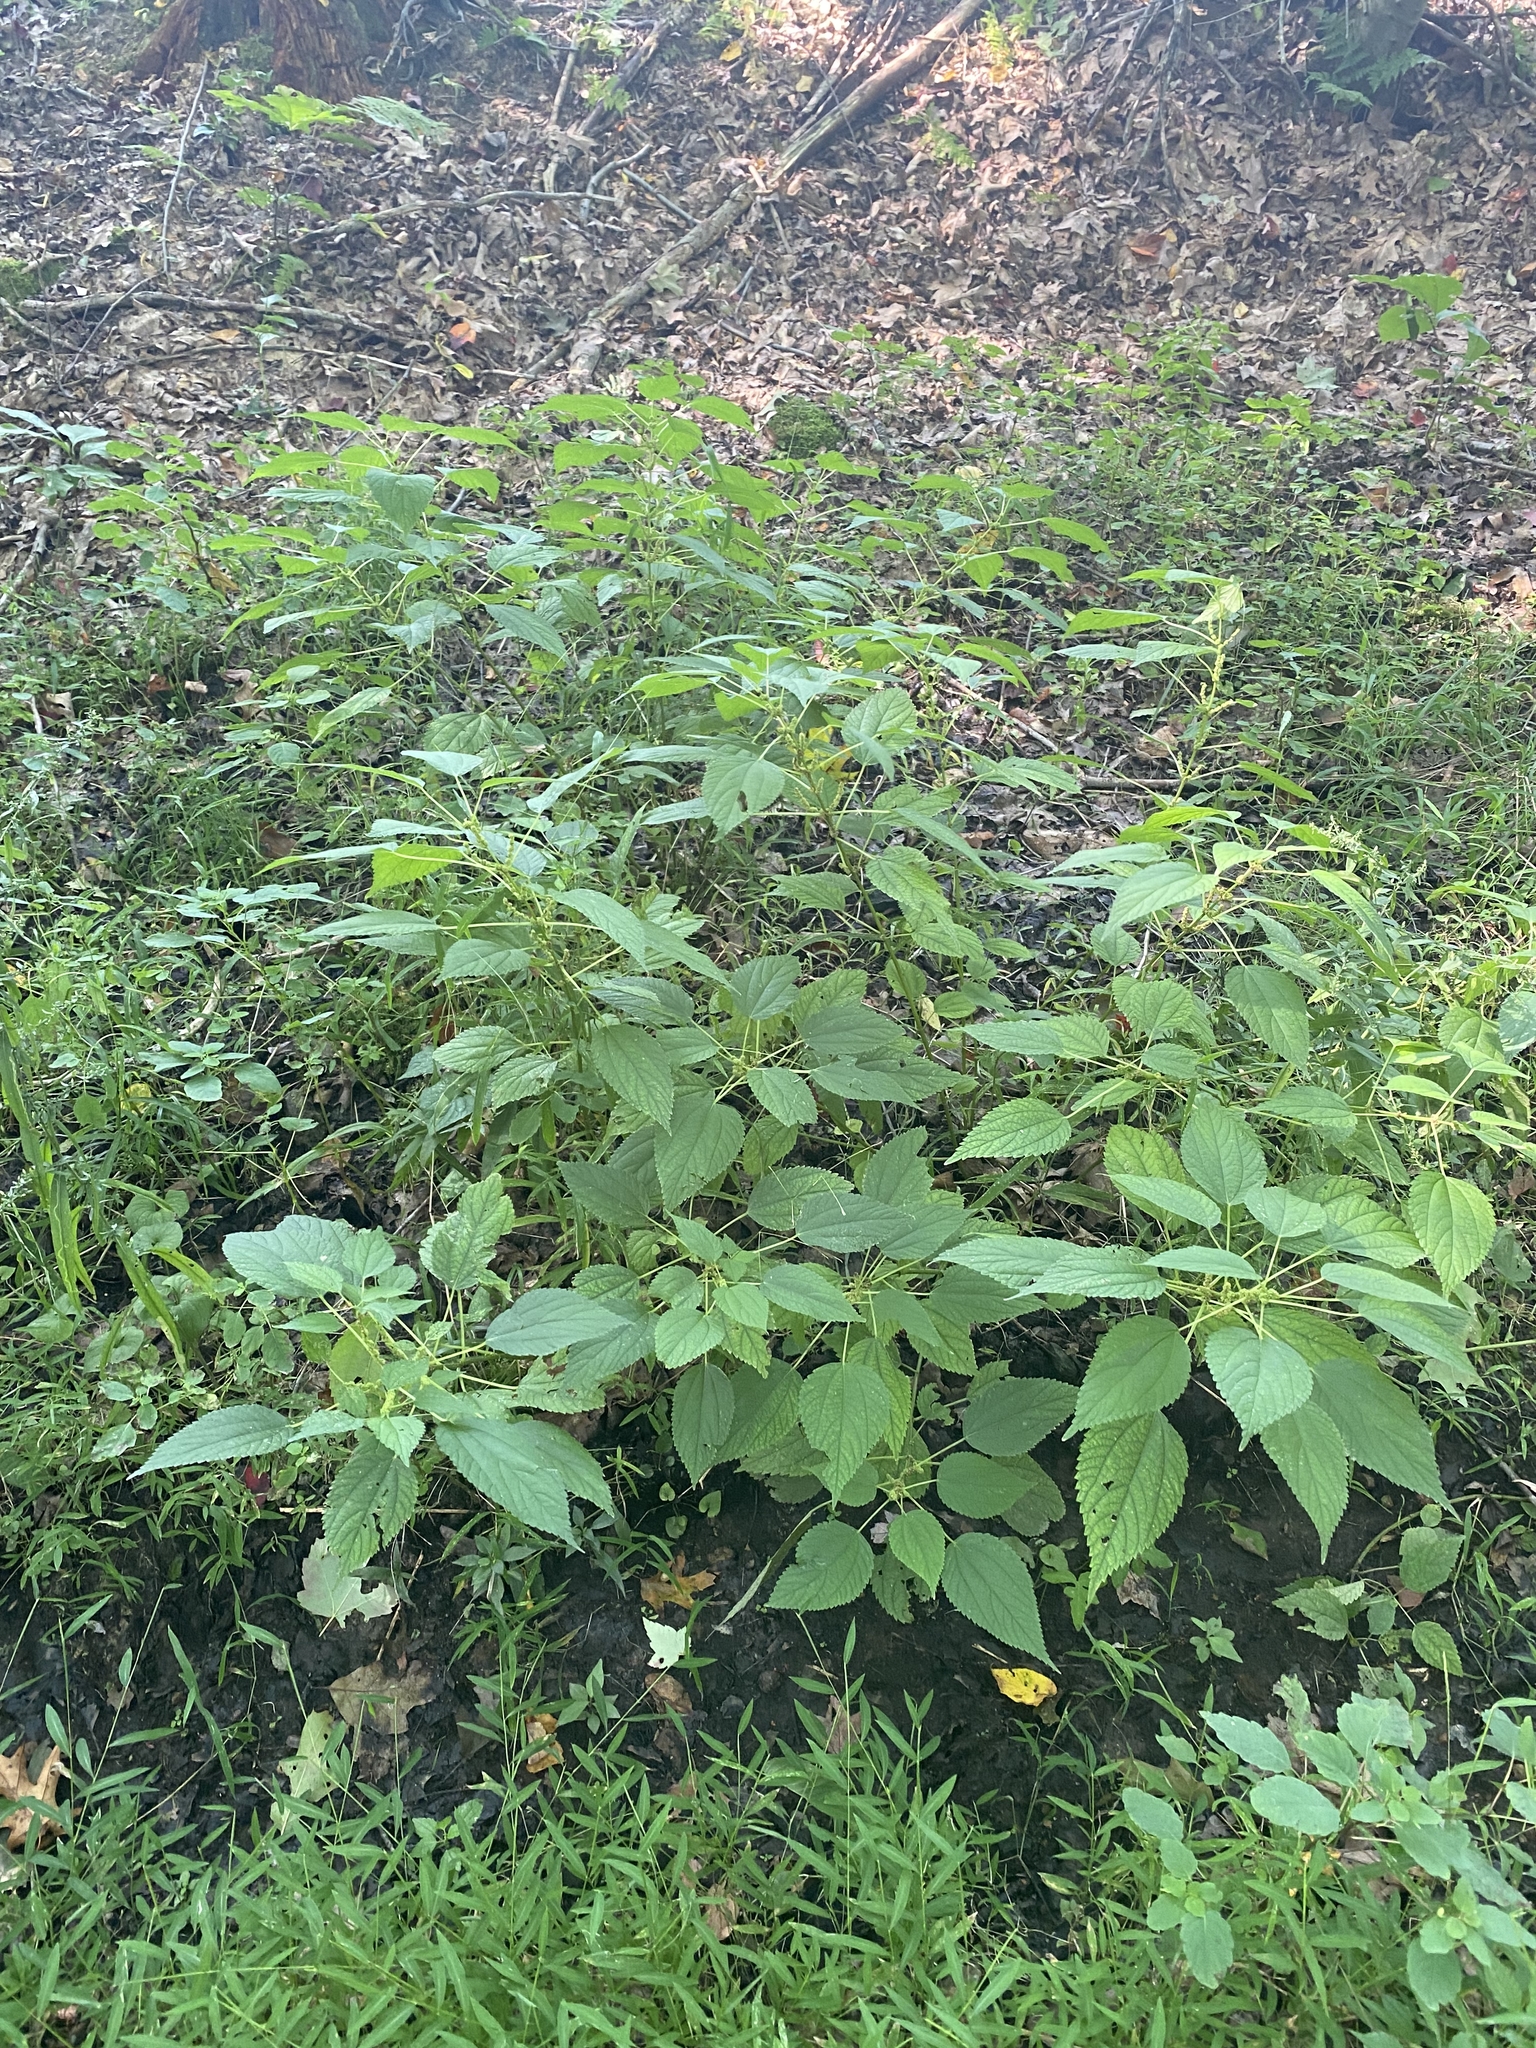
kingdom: Plantae
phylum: Tracheophyta
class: Magnoliopsida
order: Rosales
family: Urticaceae
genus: Boehmeria
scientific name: Boehmeria cylindrica
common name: Bog-hemp
